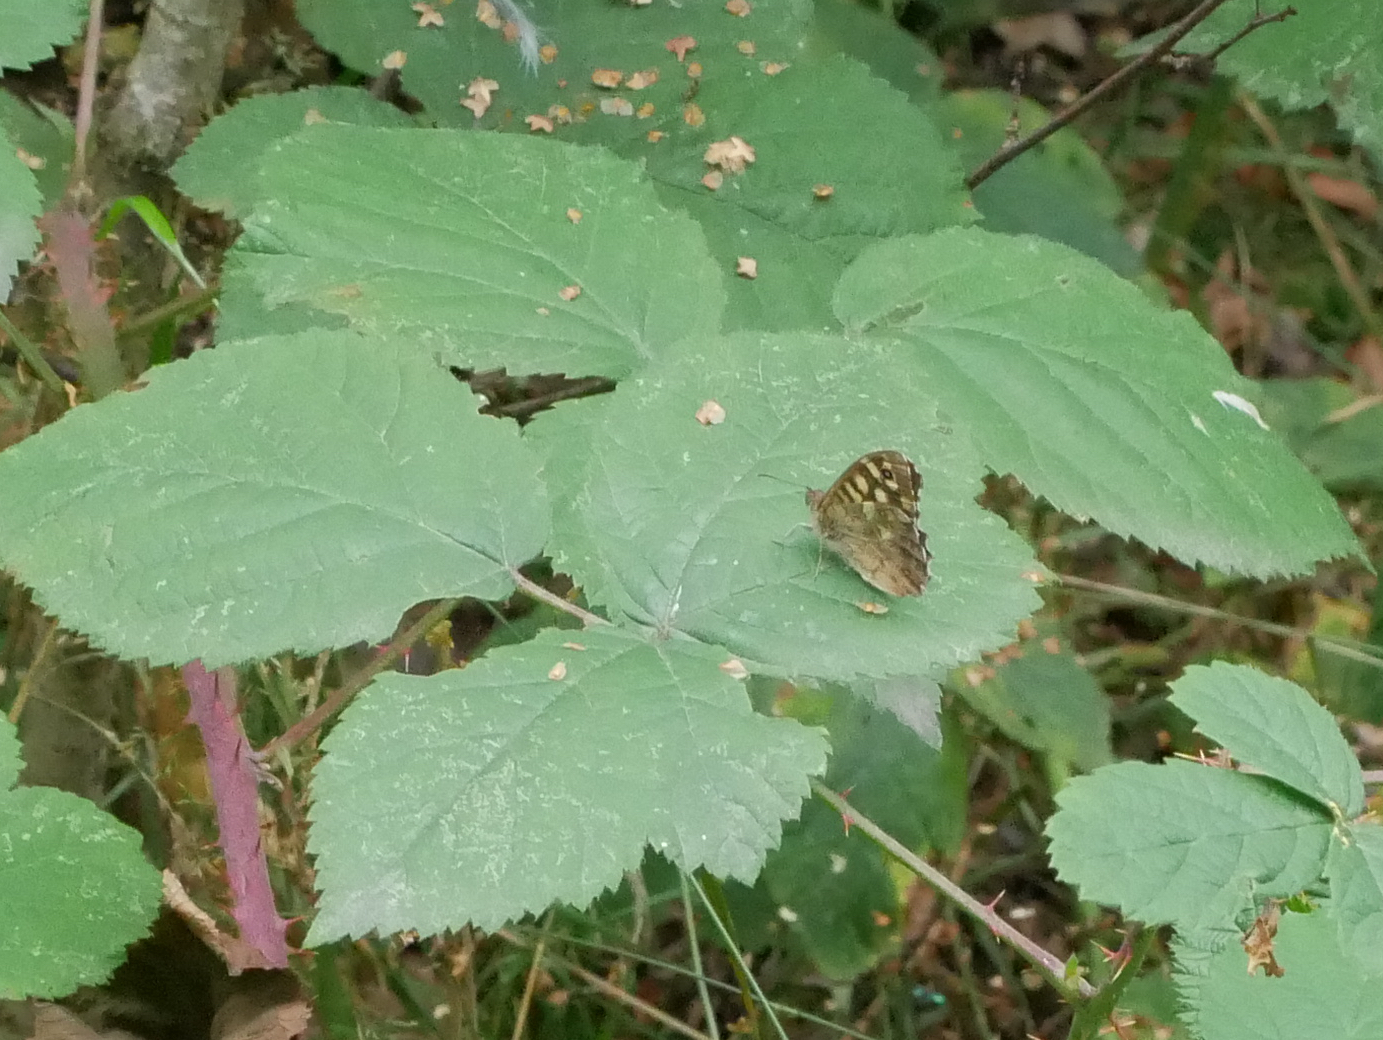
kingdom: Animalia
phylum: Arthropoda
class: Insecta
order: Lepidoptera
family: Nymphalidae
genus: Pararge
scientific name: Pararge aegeria
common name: Speckled wood
